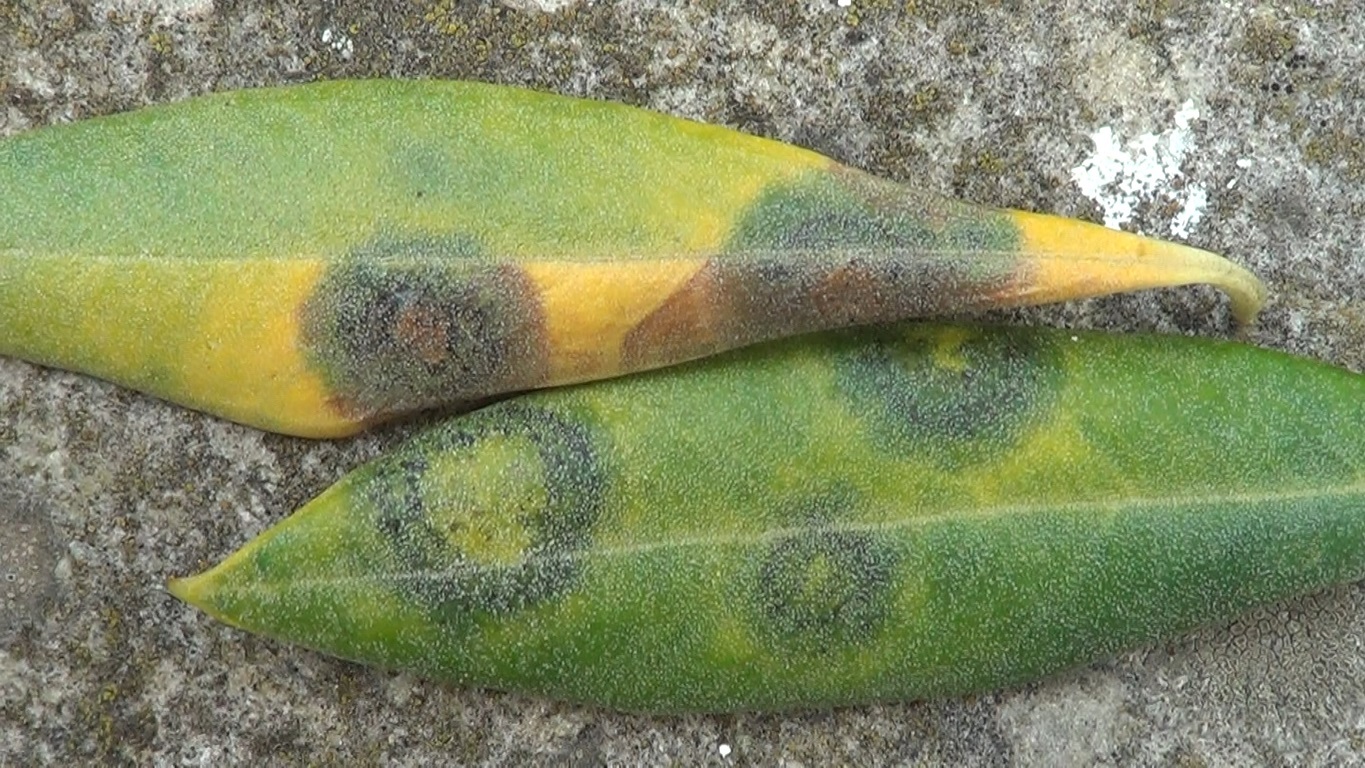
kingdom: Fungi
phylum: Ascomycota
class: Dothideomycetes
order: Venturiales
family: Venturiaceae
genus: Venturia
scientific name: Venturia oleaginea
